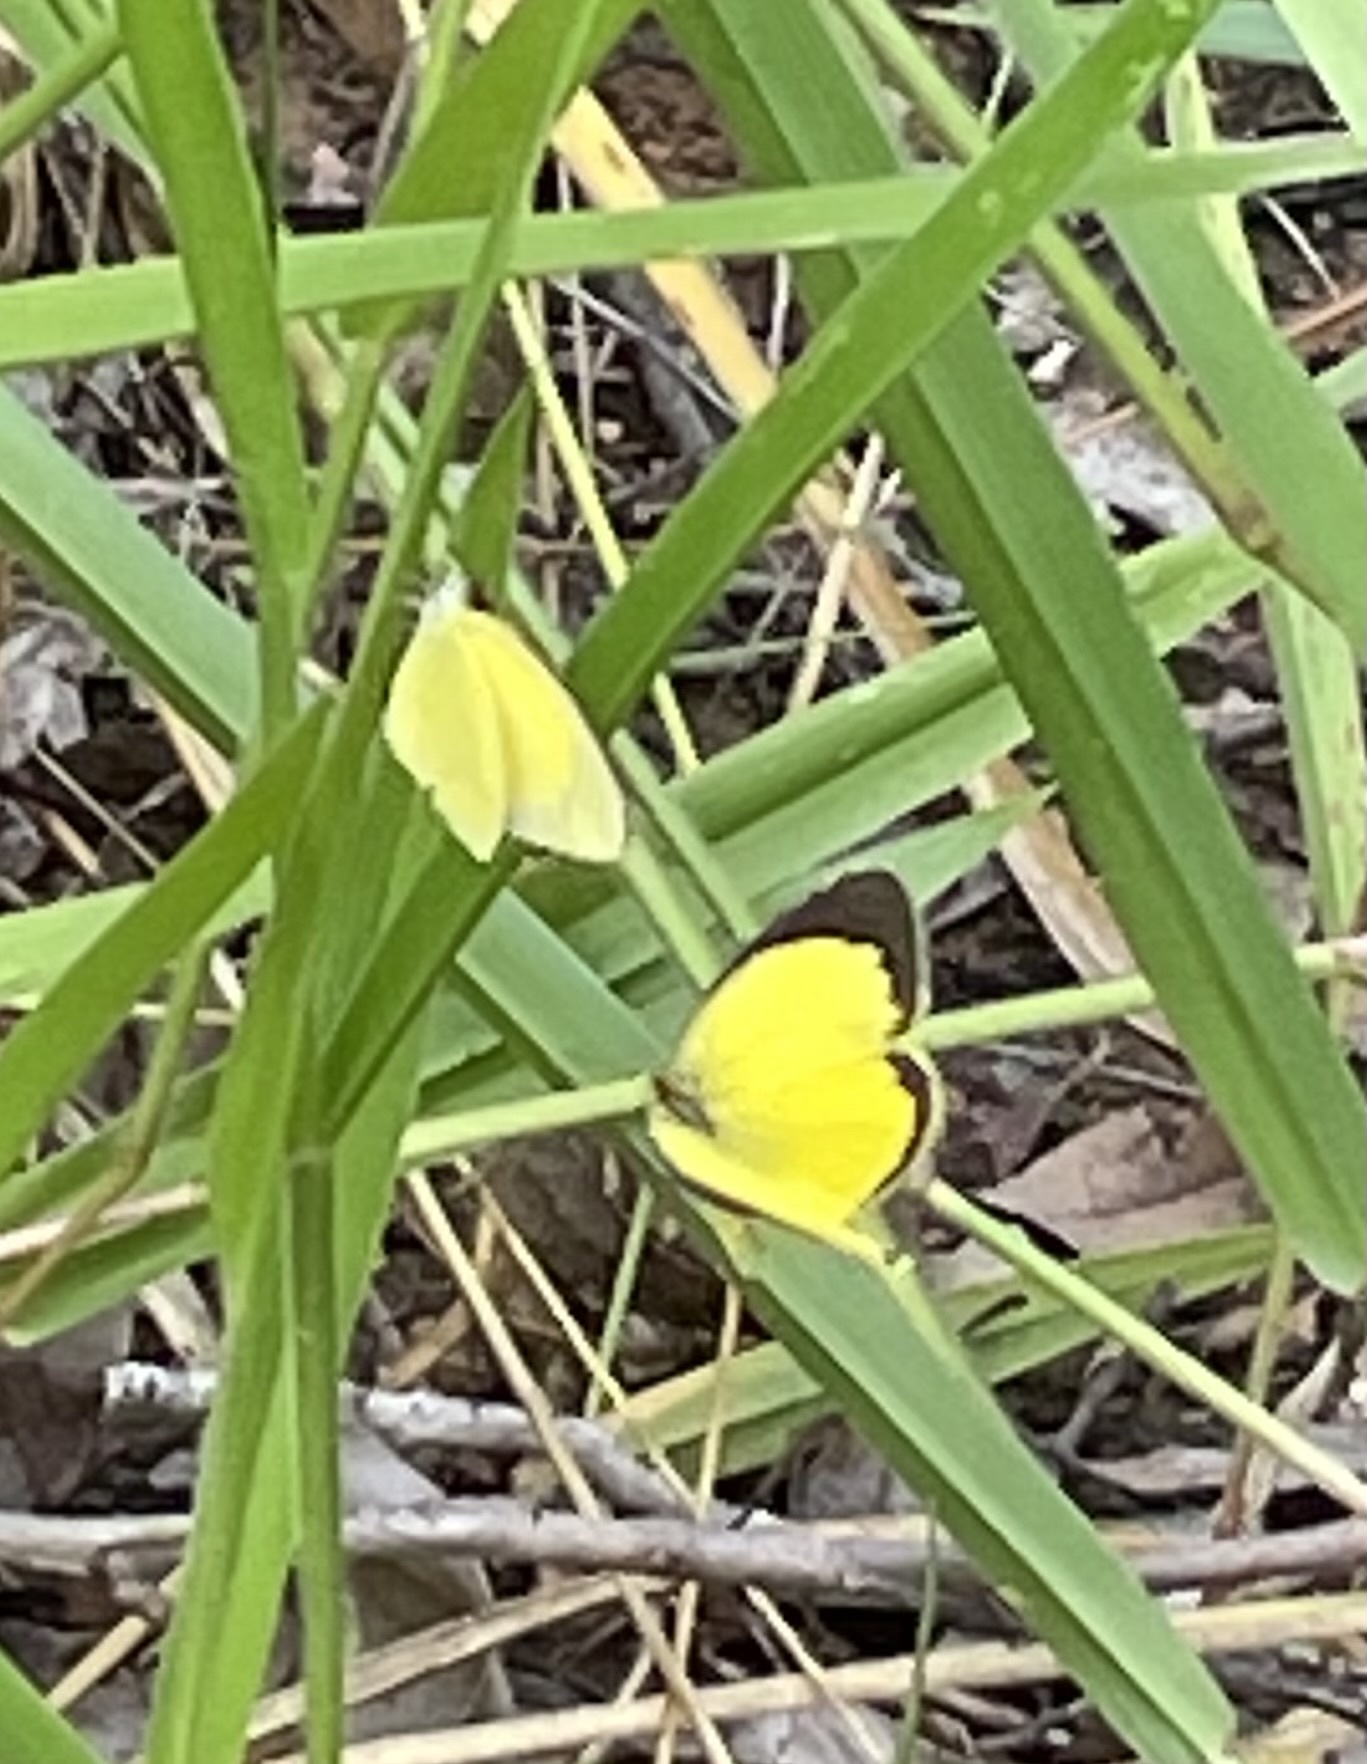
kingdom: Animalia
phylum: Arthropoda
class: Insecta
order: Lepidoptera
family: Pieridae
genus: Eurema
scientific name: Eurema brigitta
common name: Small grass yellow
